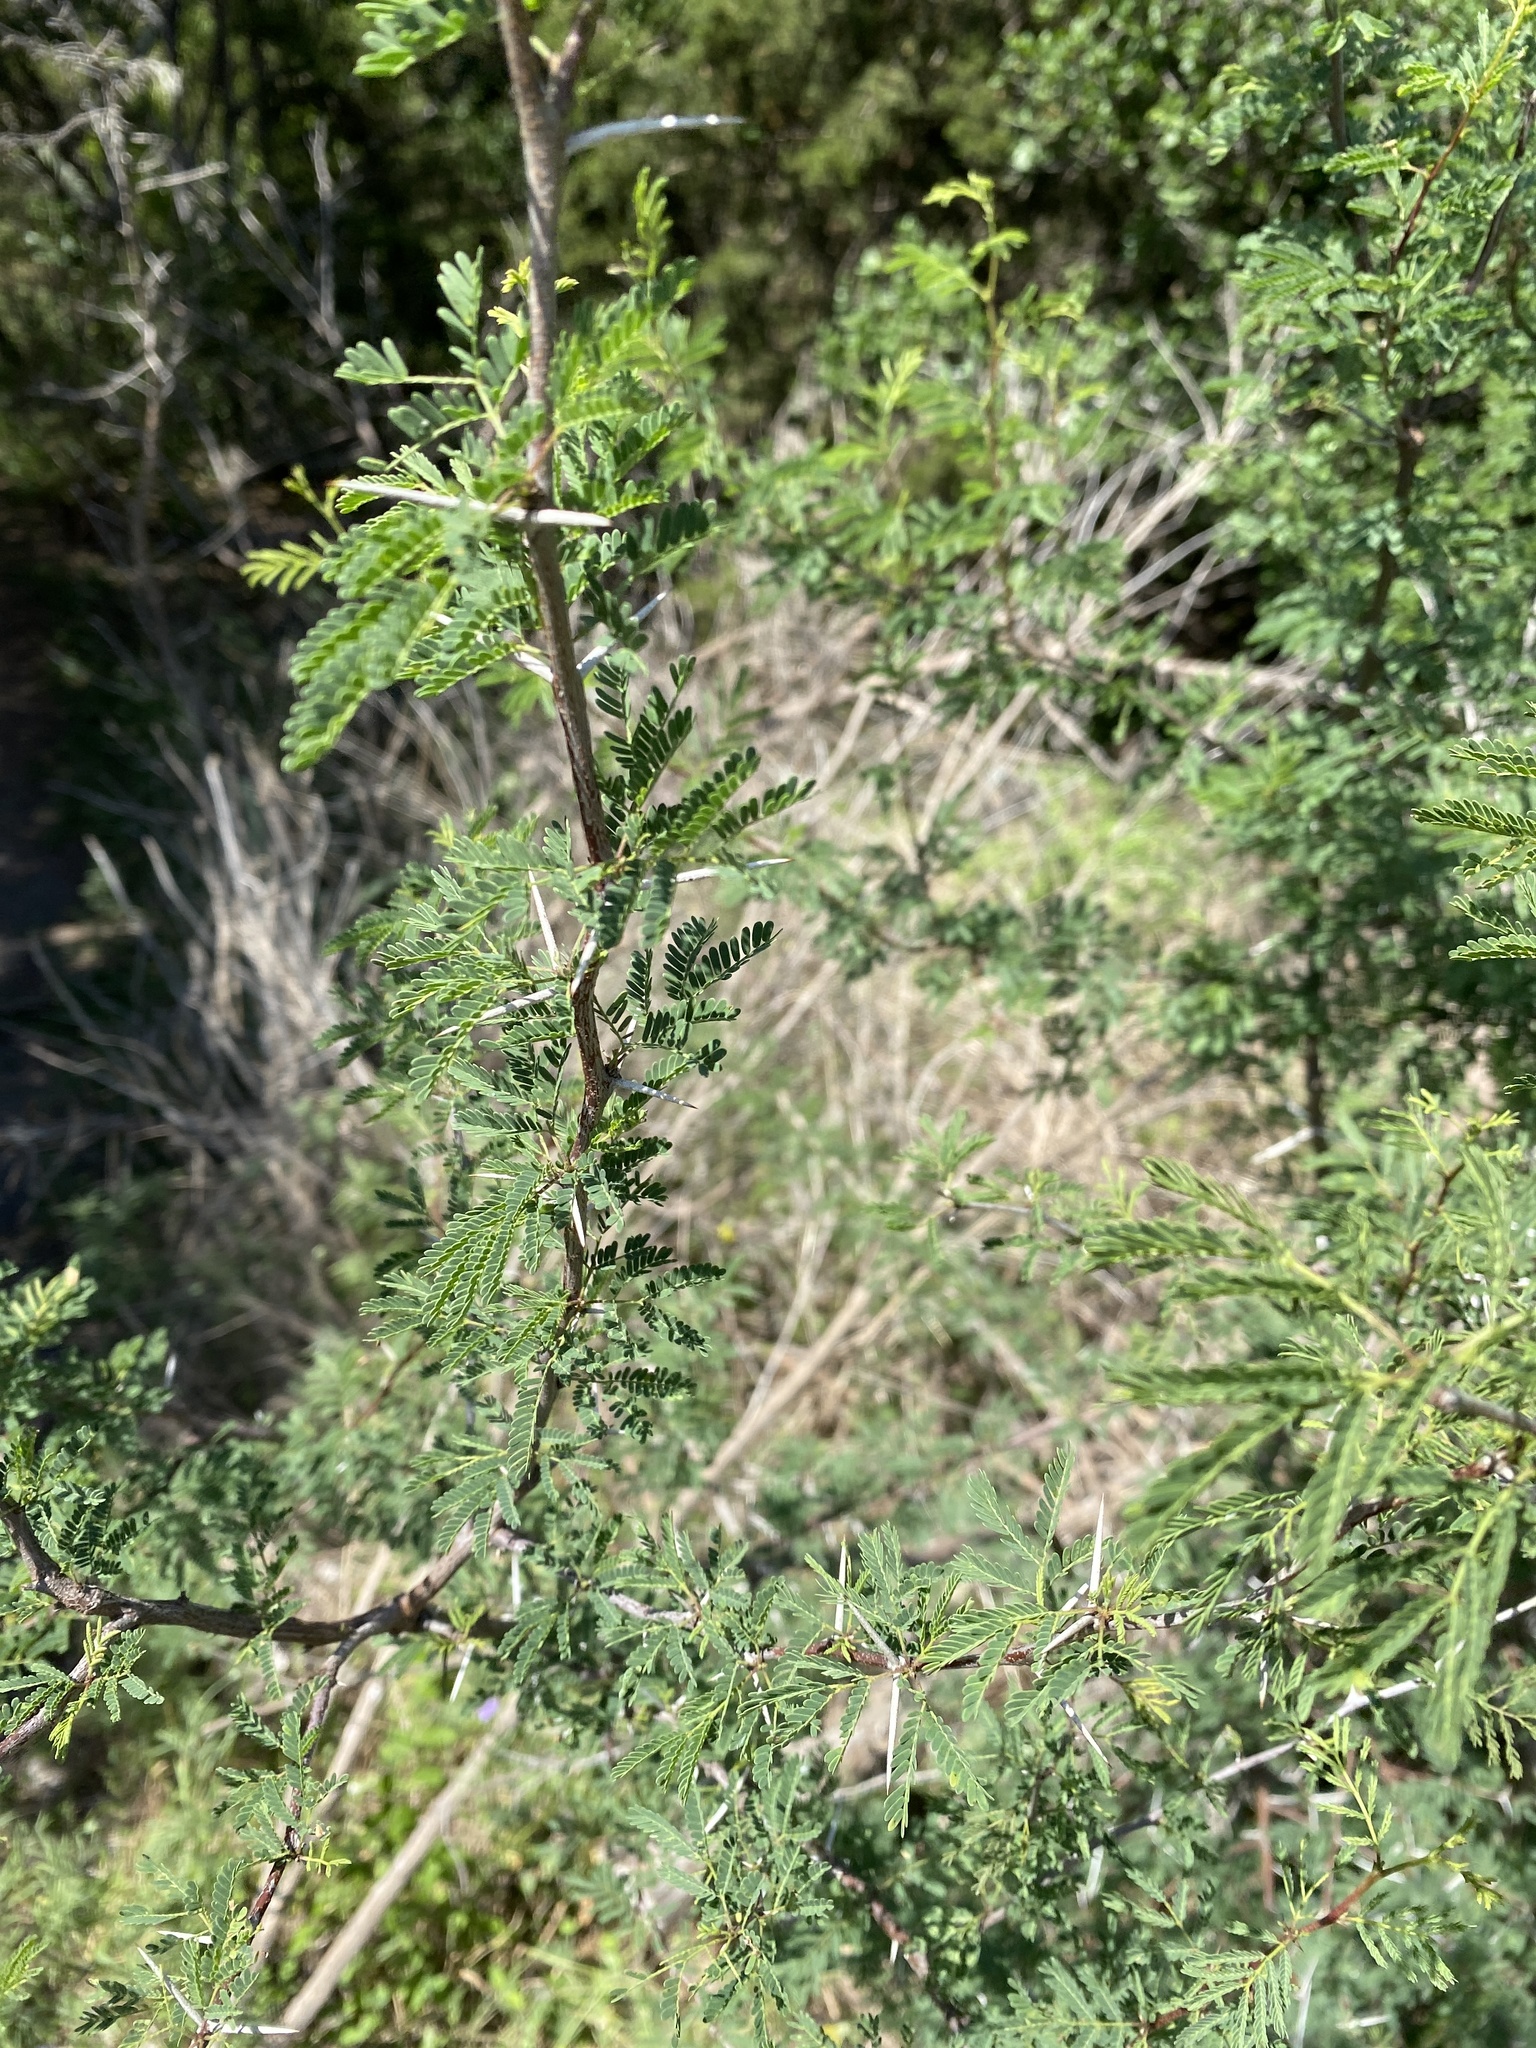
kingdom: Plantae
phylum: Tracheophyta
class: Magnoliopsida
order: Fabales
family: Fabaceae
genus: Vachellia
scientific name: Vachellia farnesiana
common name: Sweet acacia
